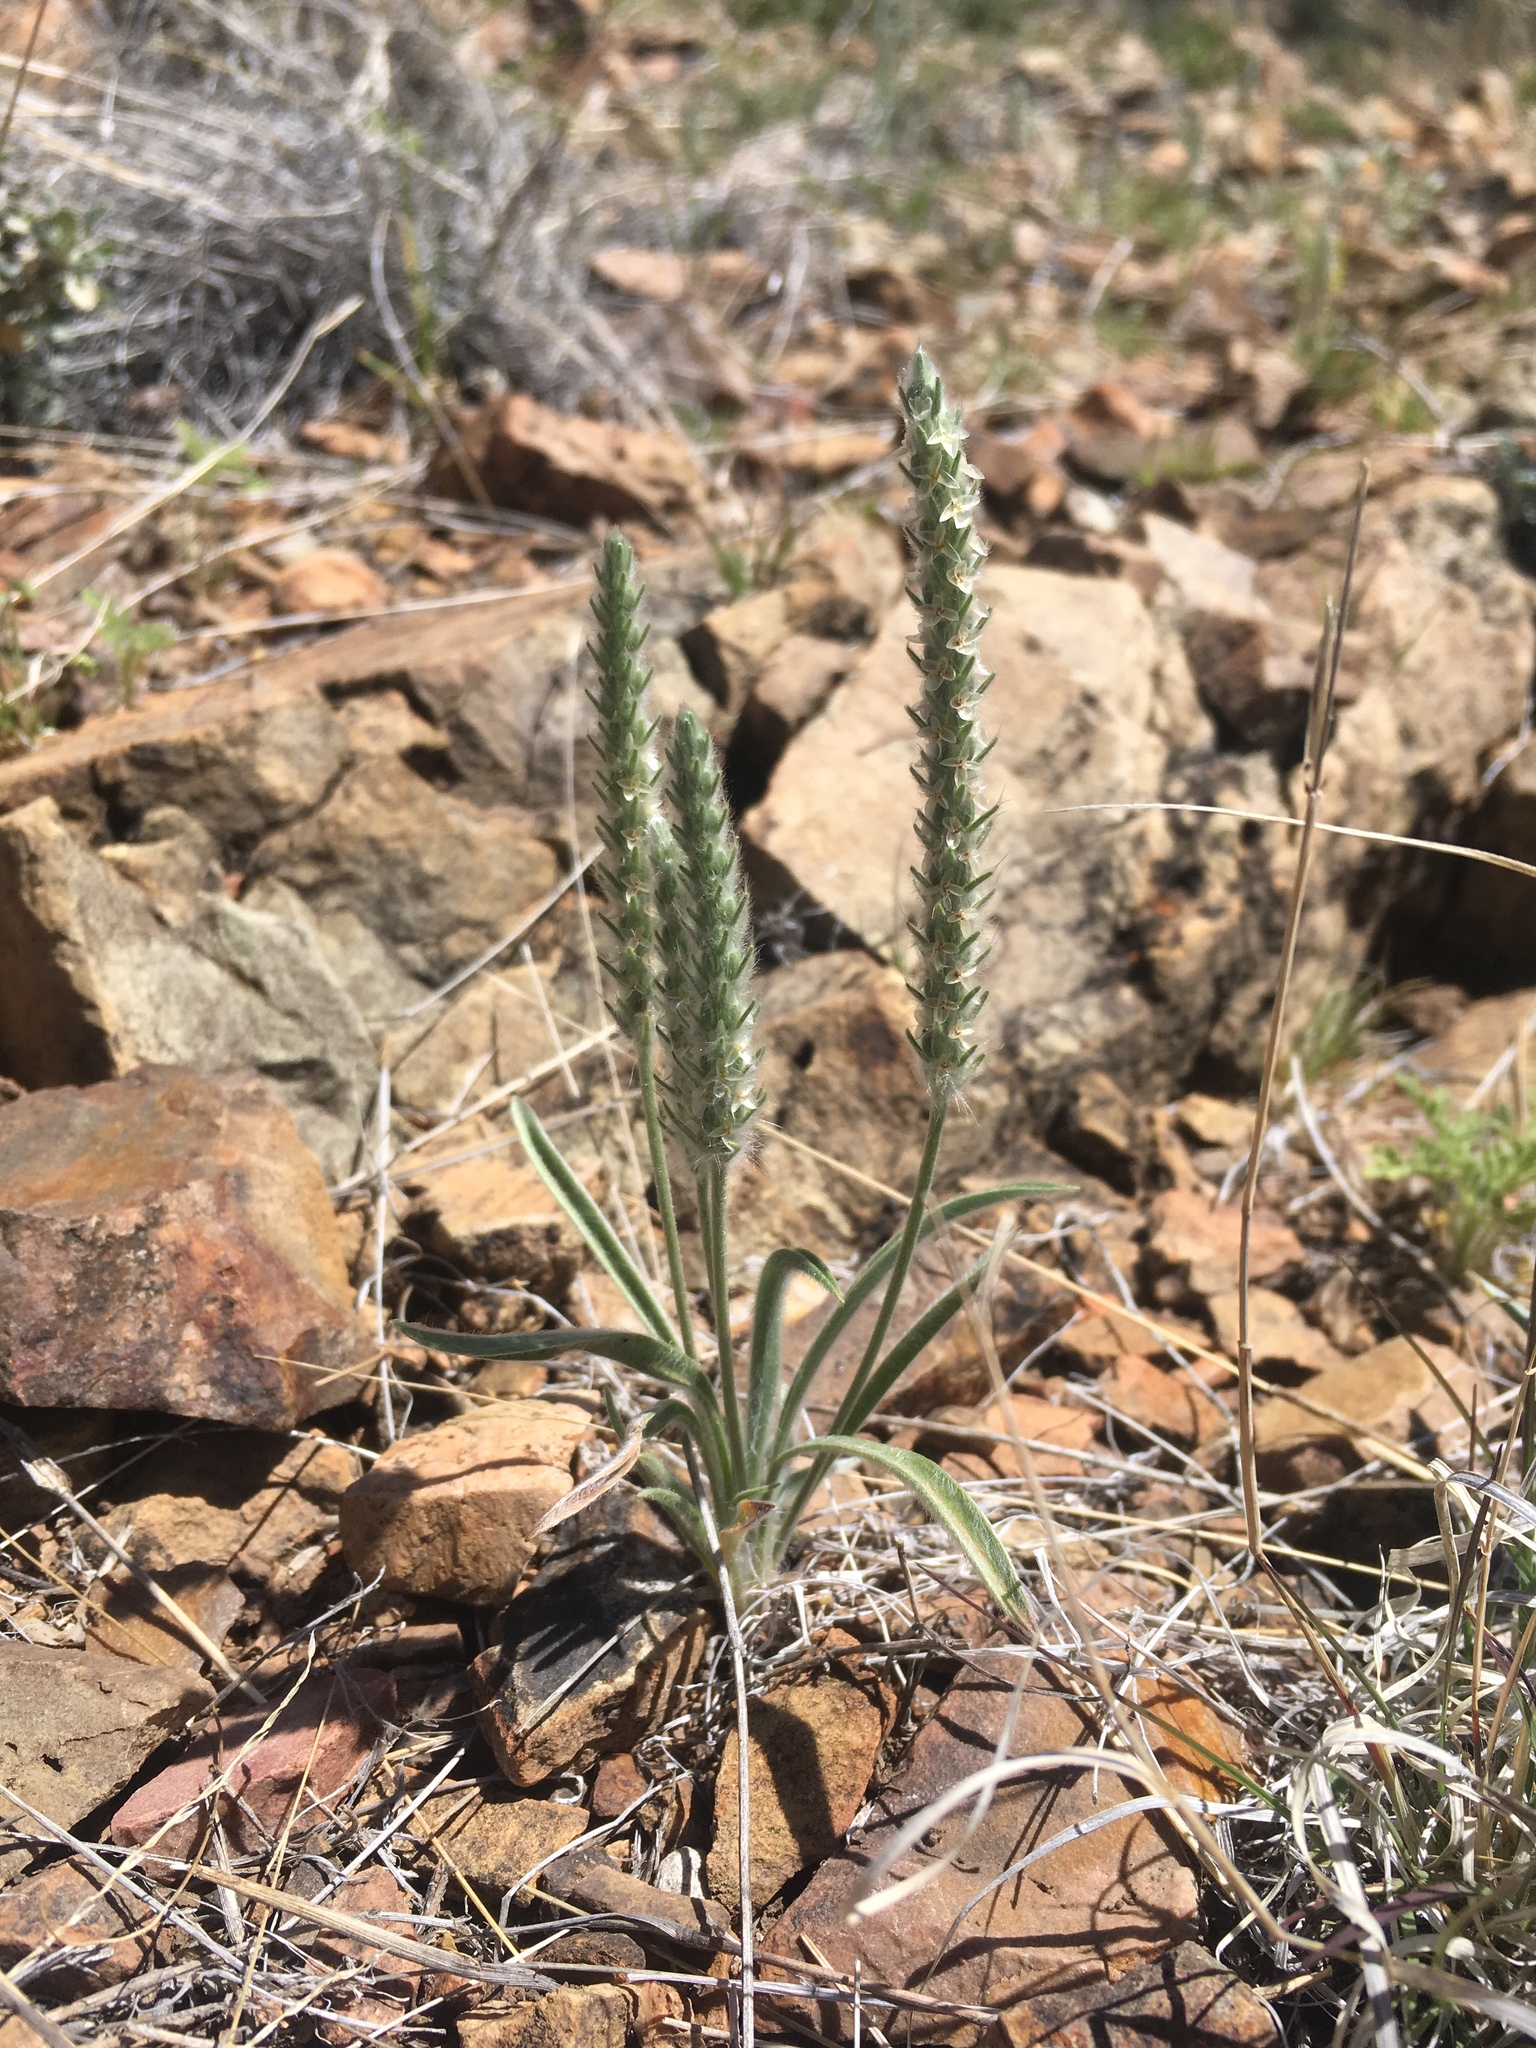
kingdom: Plantae
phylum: Tracheophyta
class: Magnoliopsida
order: Lamiales
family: Plantaginaceae
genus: Plantago
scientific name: Plantago patagonica
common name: Patagonia indian-wheat
